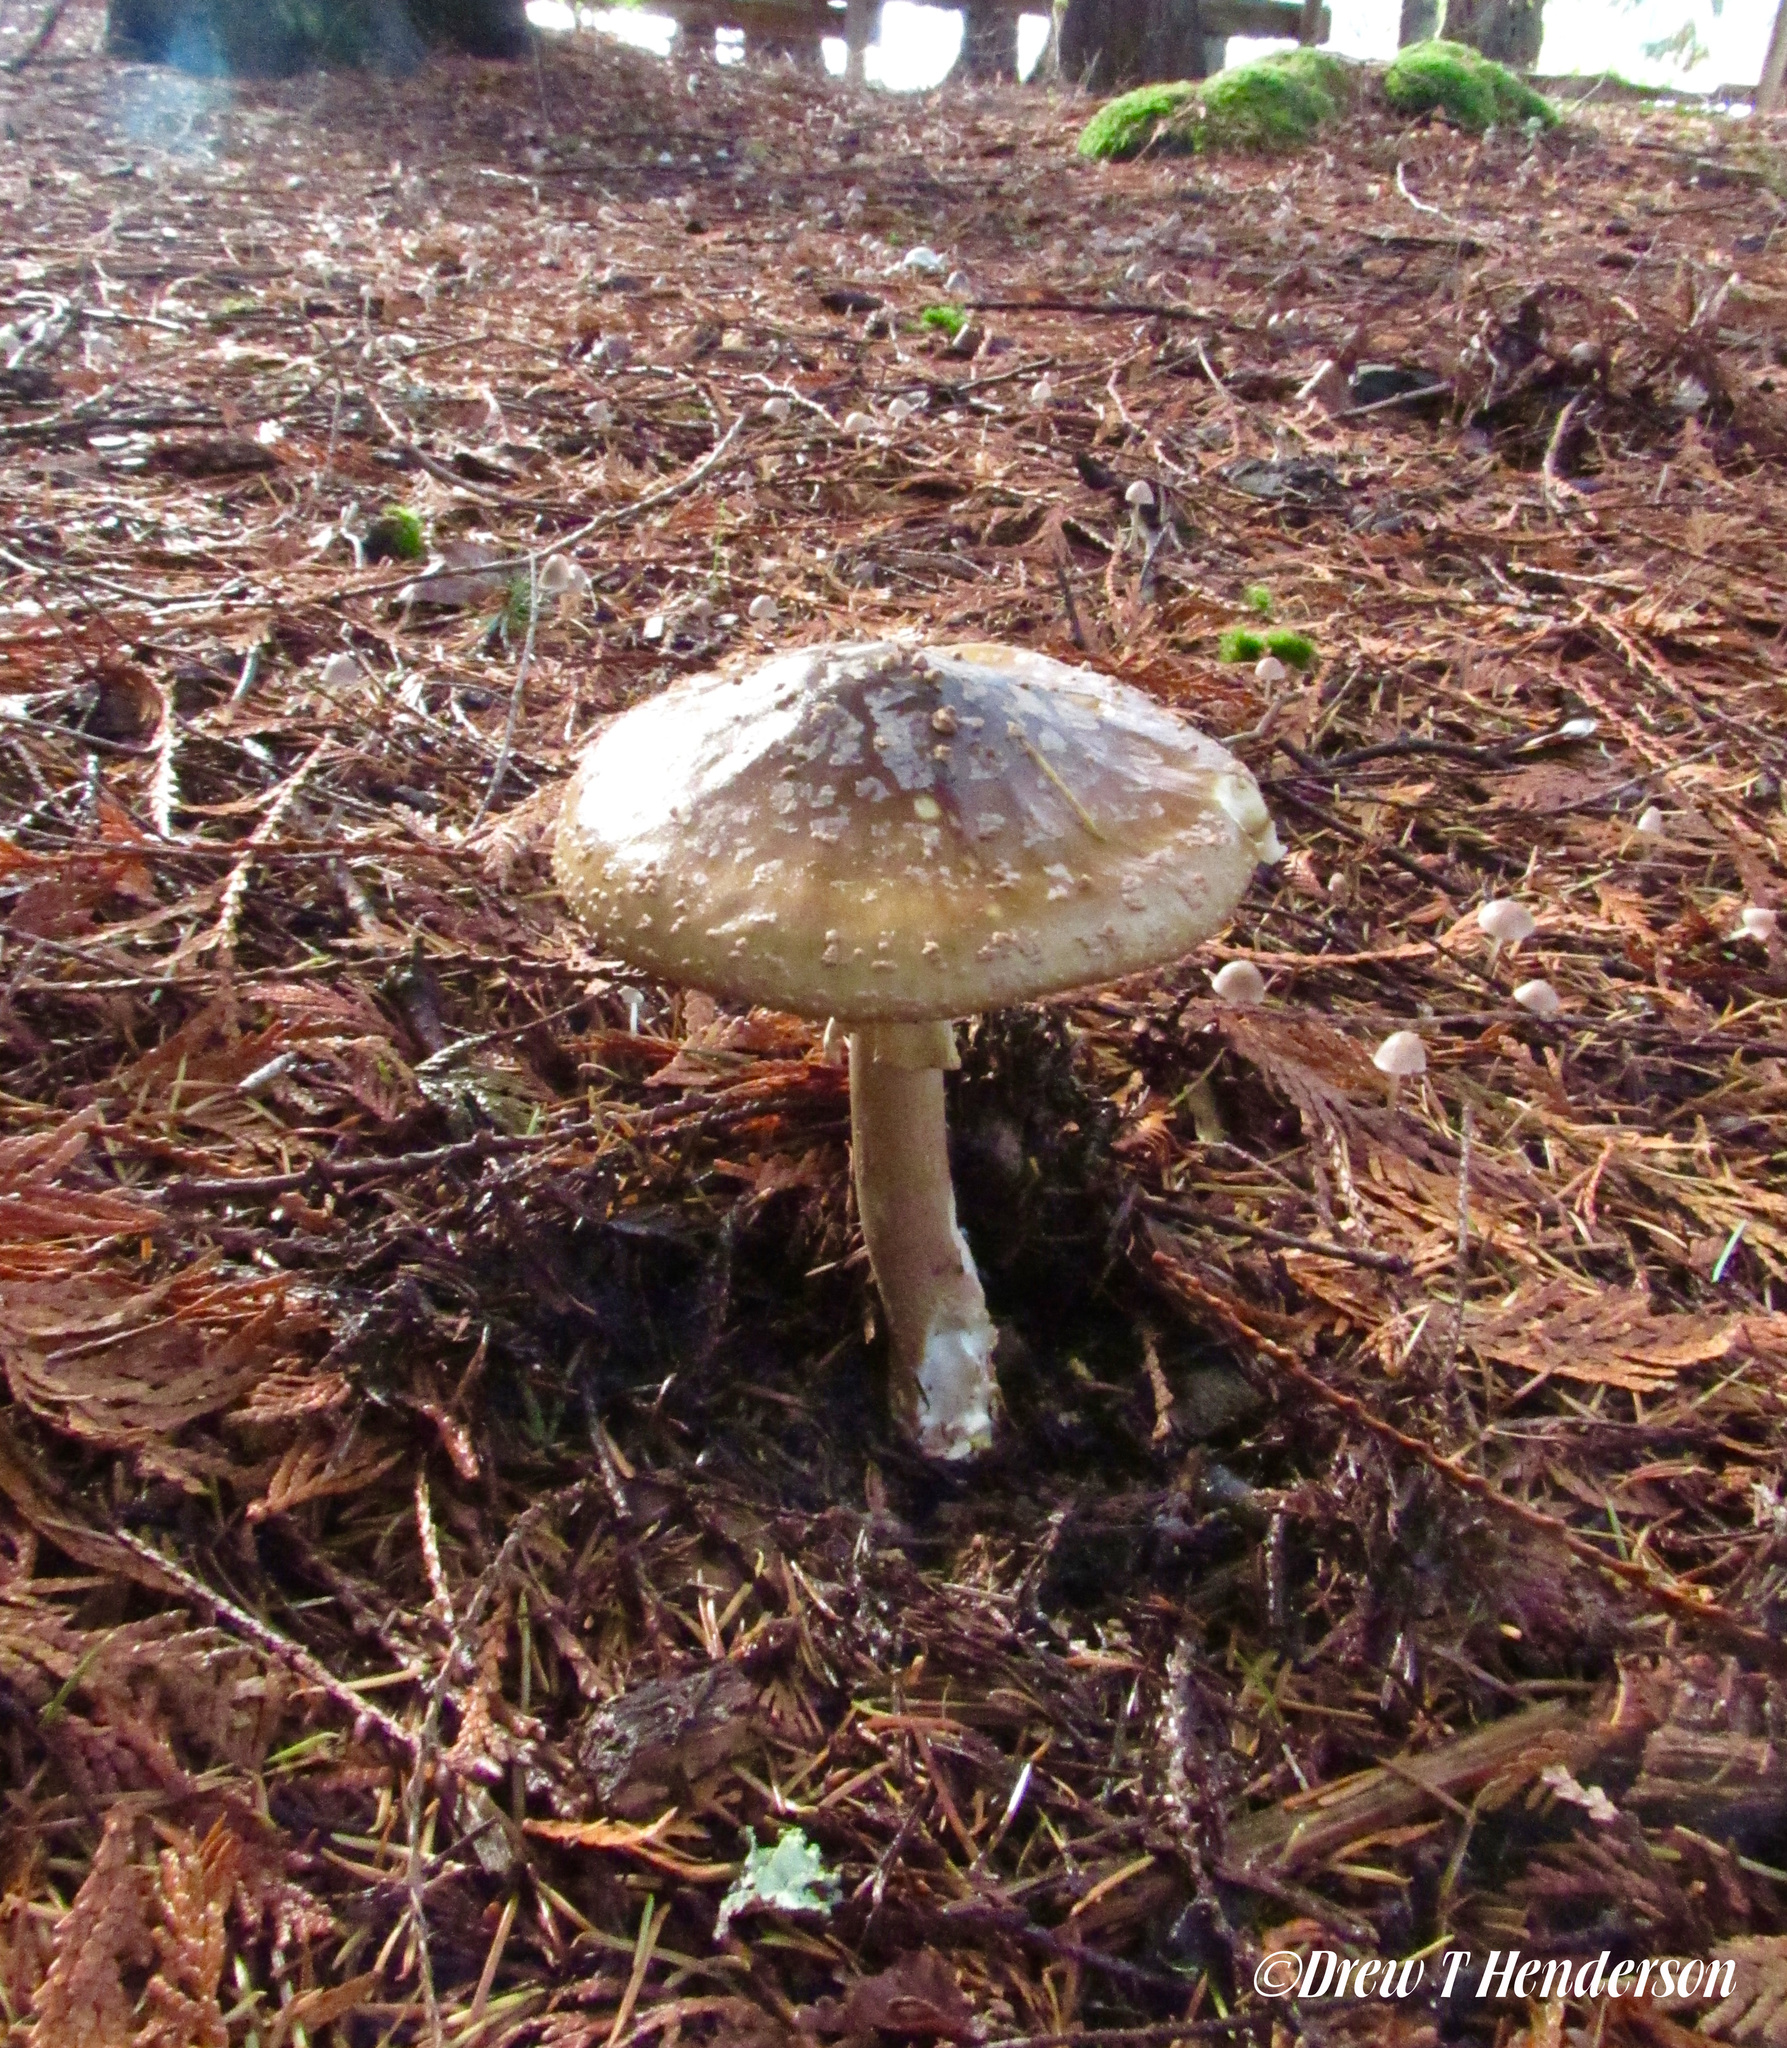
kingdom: Fungi
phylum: Basidiomycota
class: Agaricomycetes
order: Agaricales
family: Amanitaceae
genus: Amanita
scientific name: Amanita augusta
